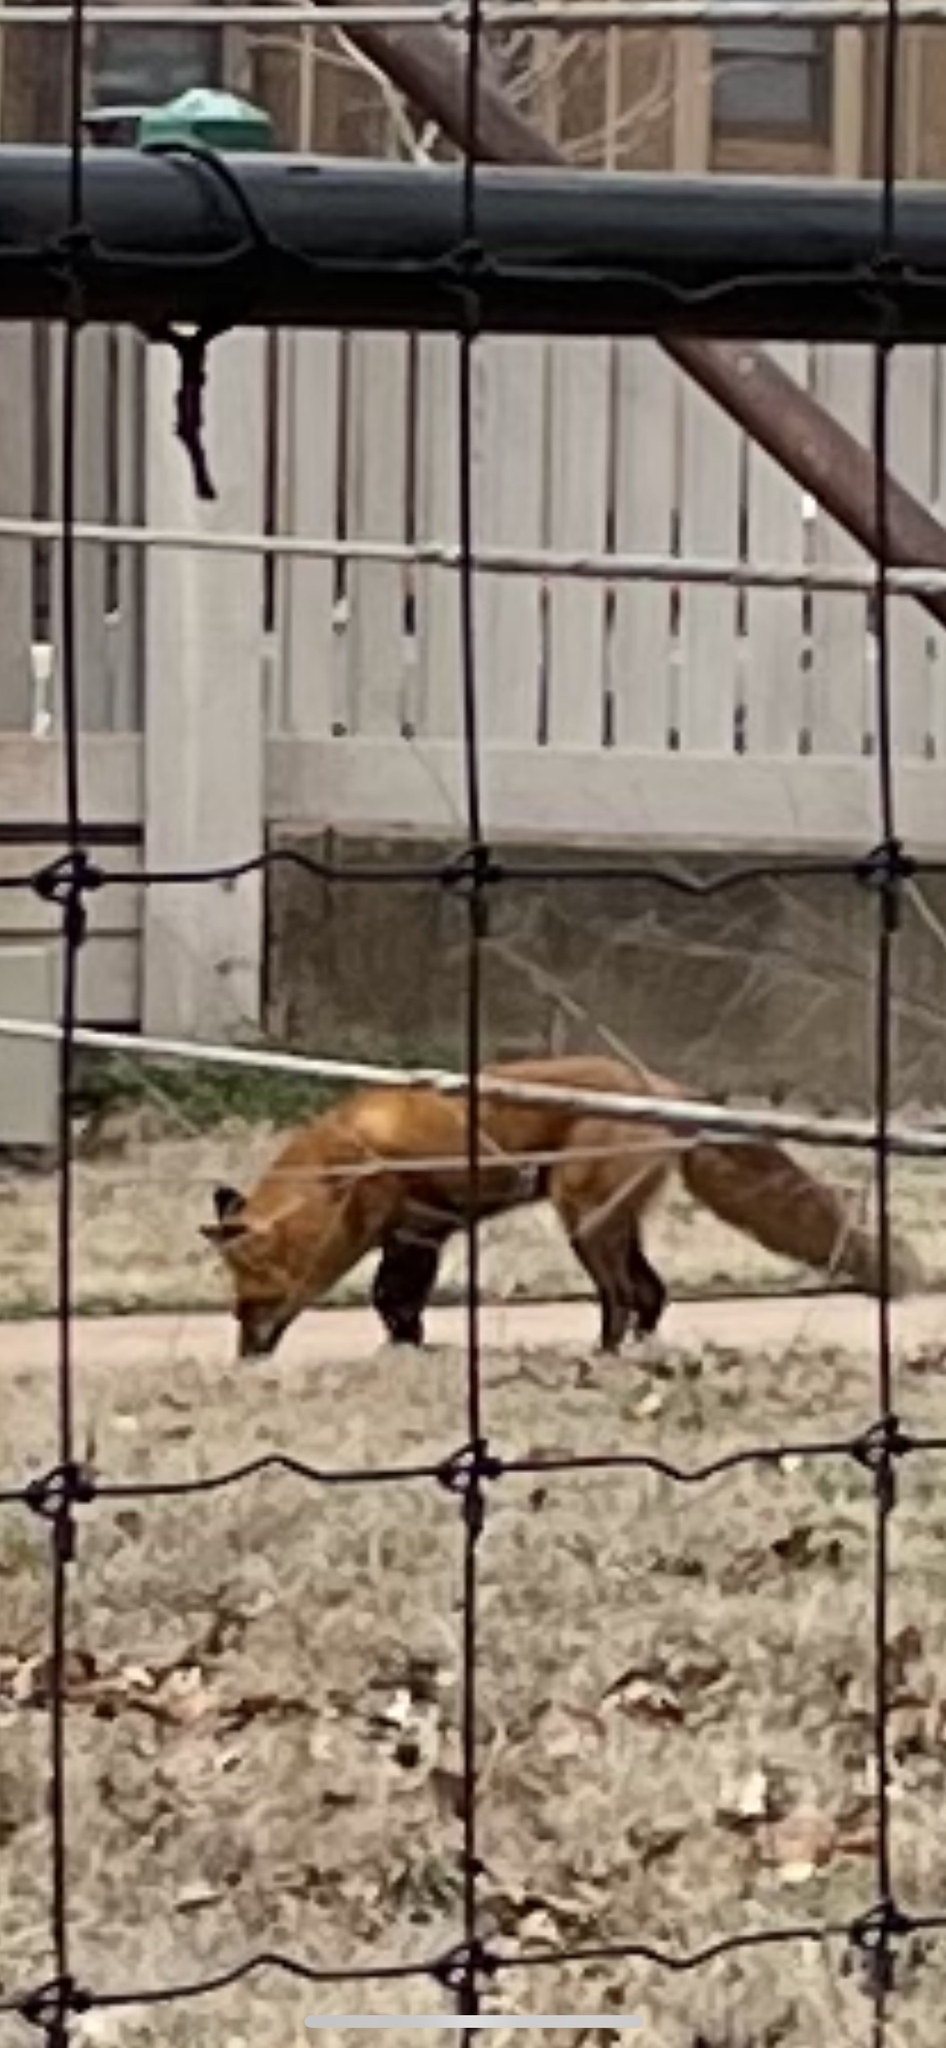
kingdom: Animalia
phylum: Chordata
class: Mammalia
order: Carnivora
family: Canidae
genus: Vulpes
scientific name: Vulpes vulpes
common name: Red fox
